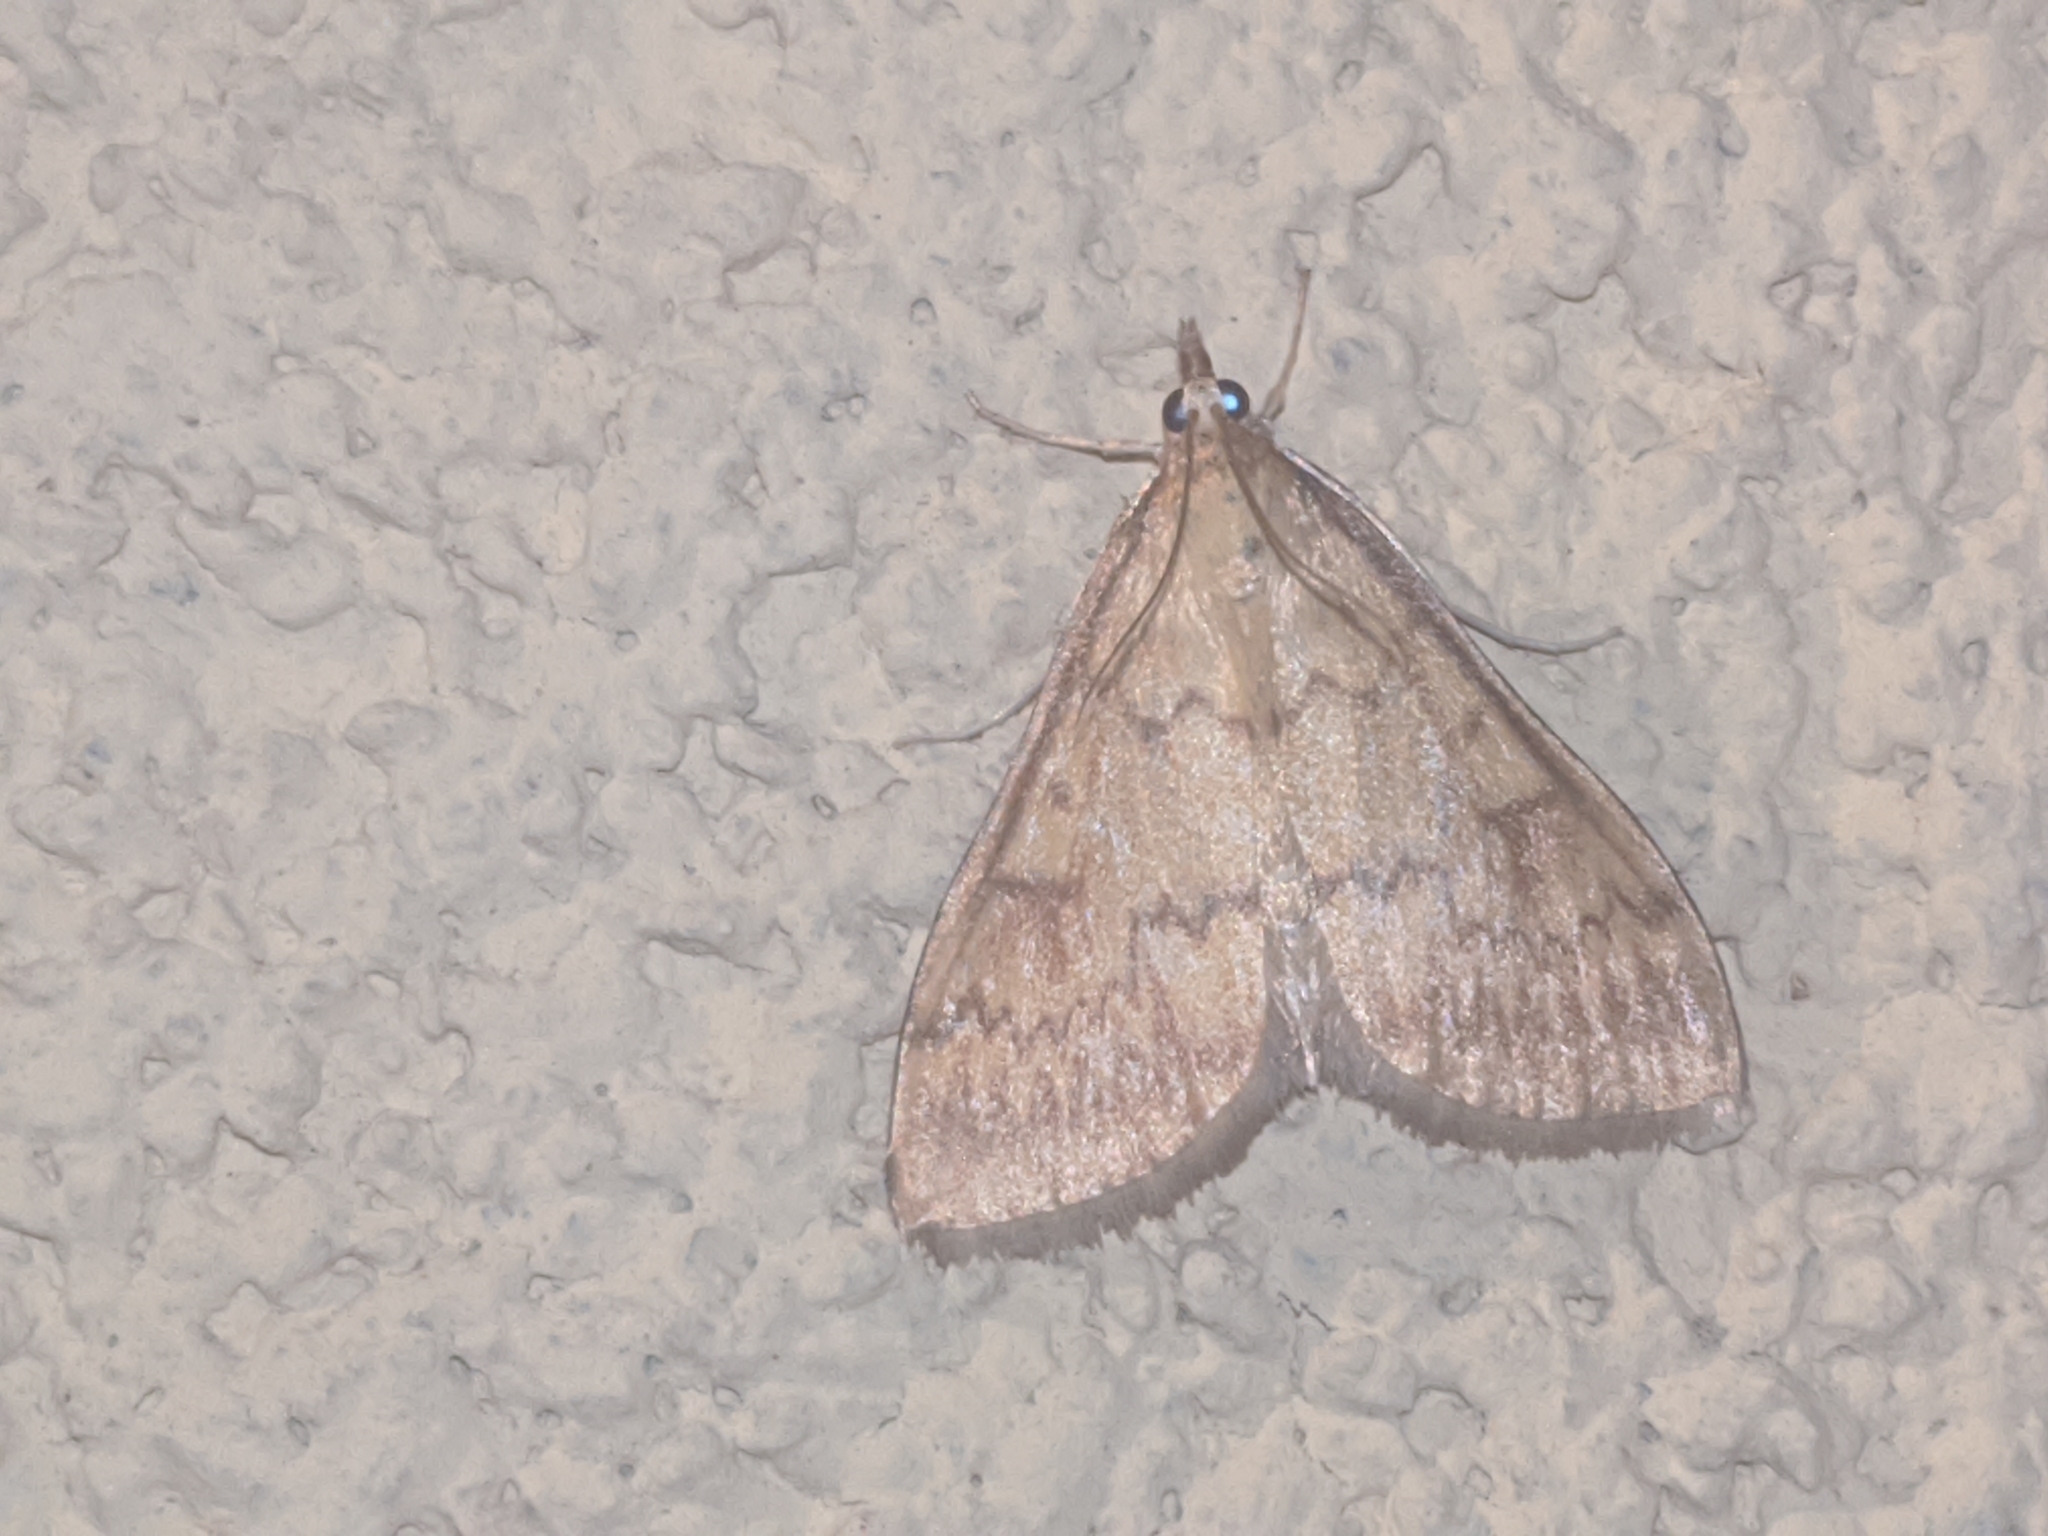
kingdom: Animalia
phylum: Arthropoda
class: Insecta
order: Lepidoptera
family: Crambidae
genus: Ostrinia
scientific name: Ostrinia nubilalis
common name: European corn borer
